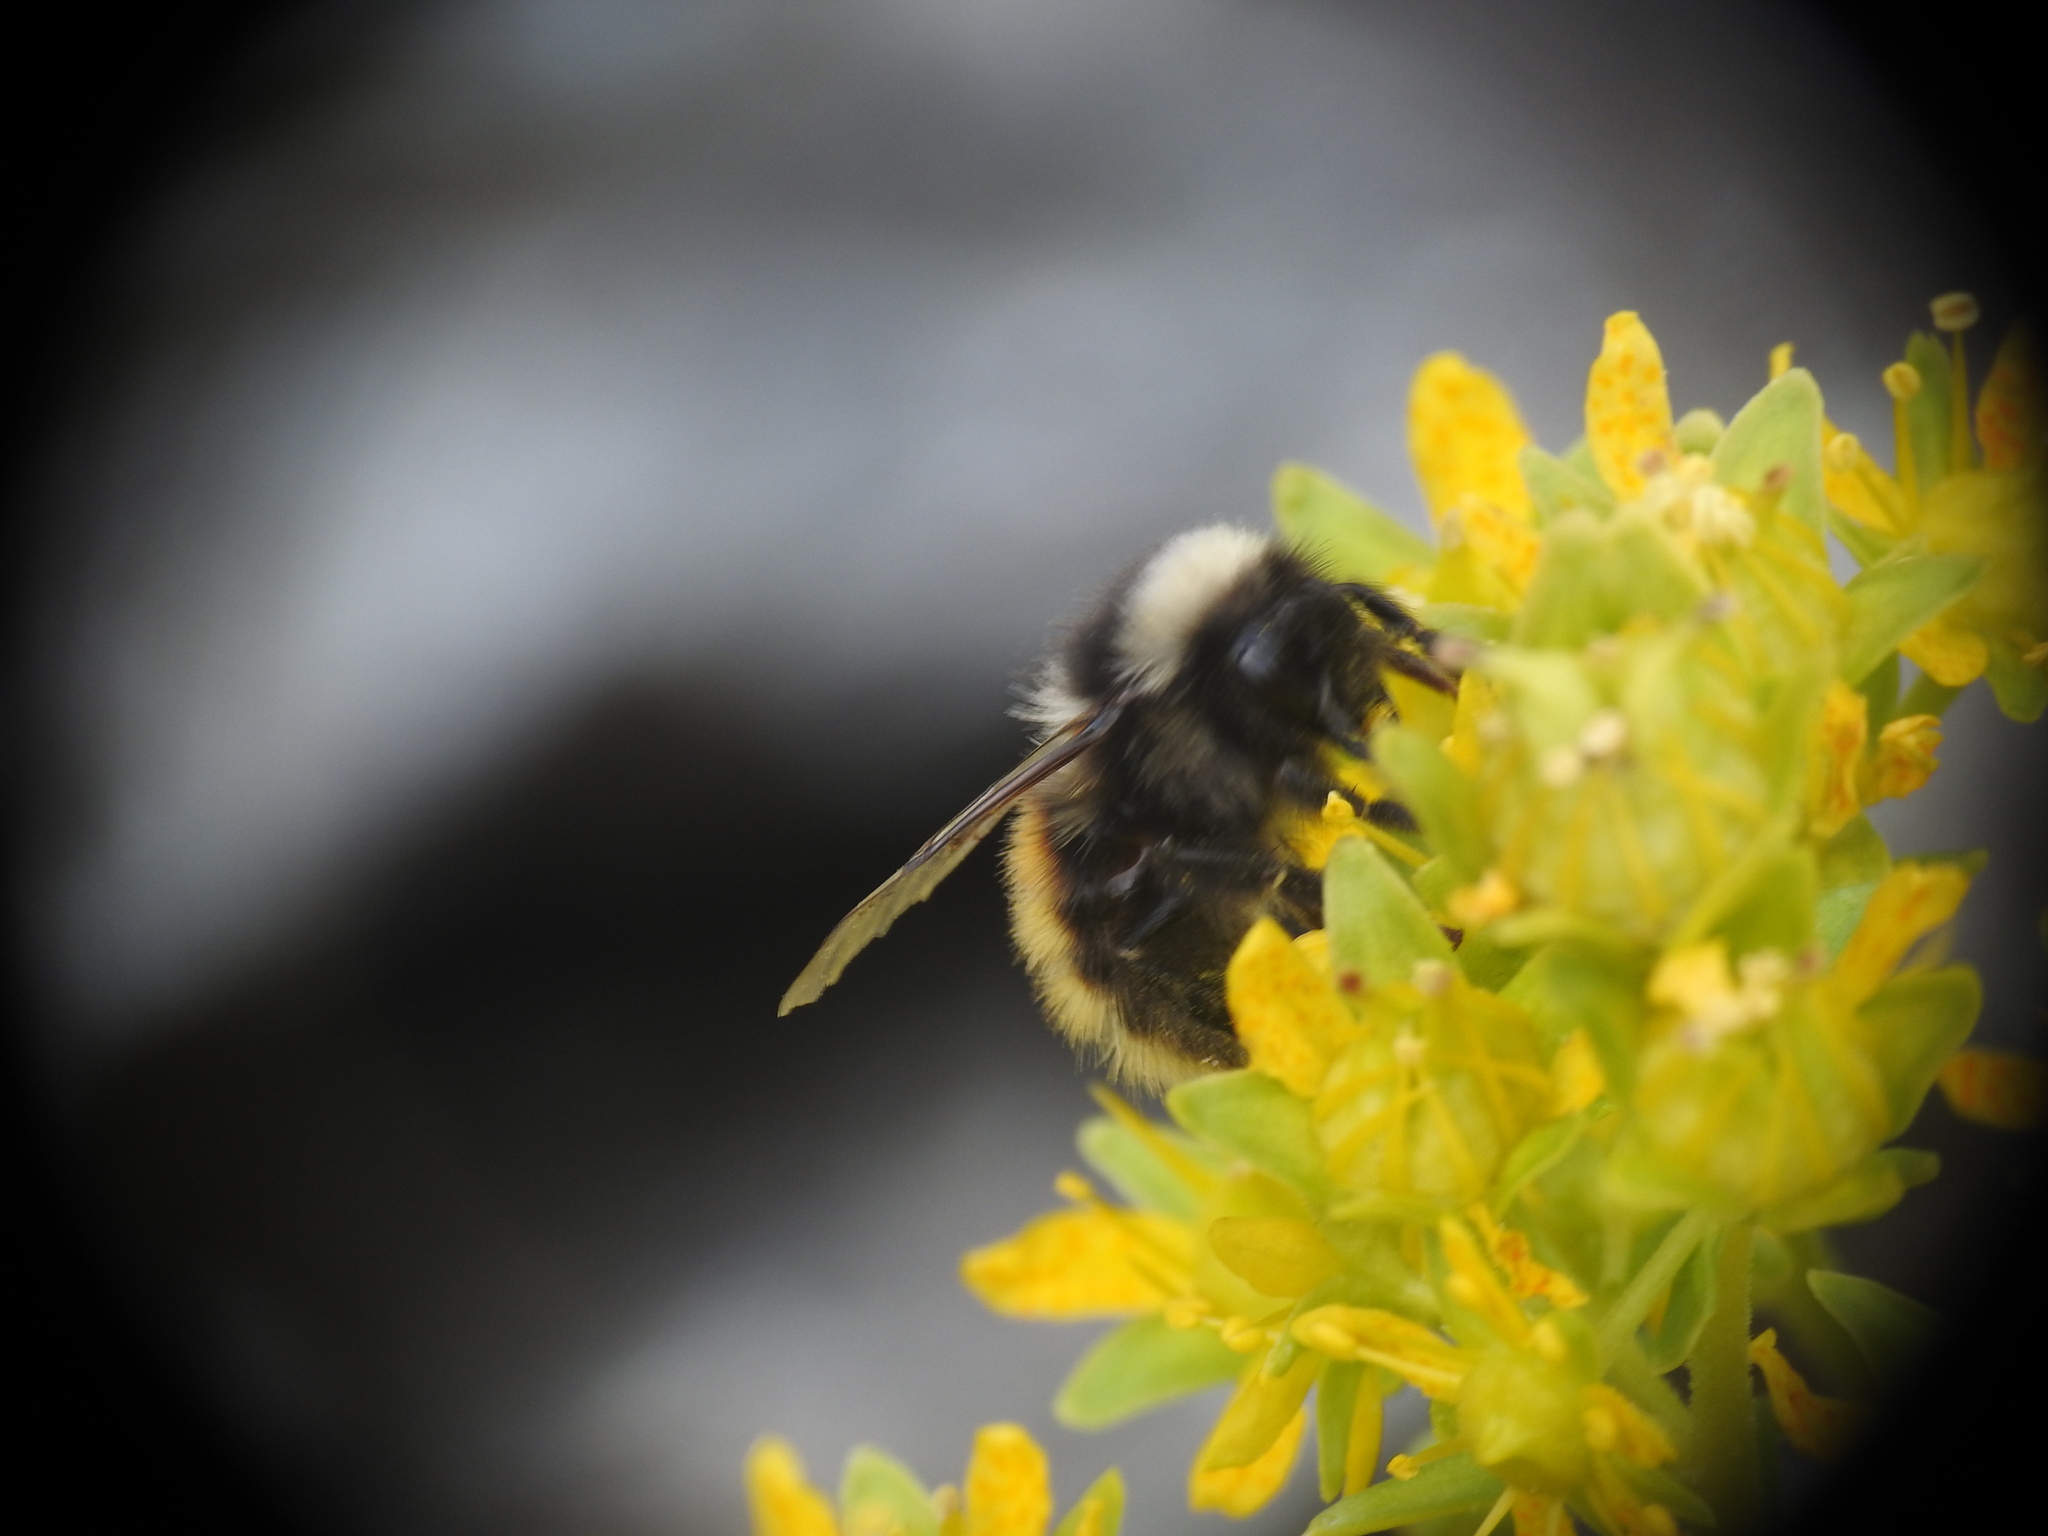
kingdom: Animalia
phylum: Arthropoda
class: Insecta
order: Hymenoptera
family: Apidae
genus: Bombus
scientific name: Bombus monticola
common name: Bilberry humble-bee
